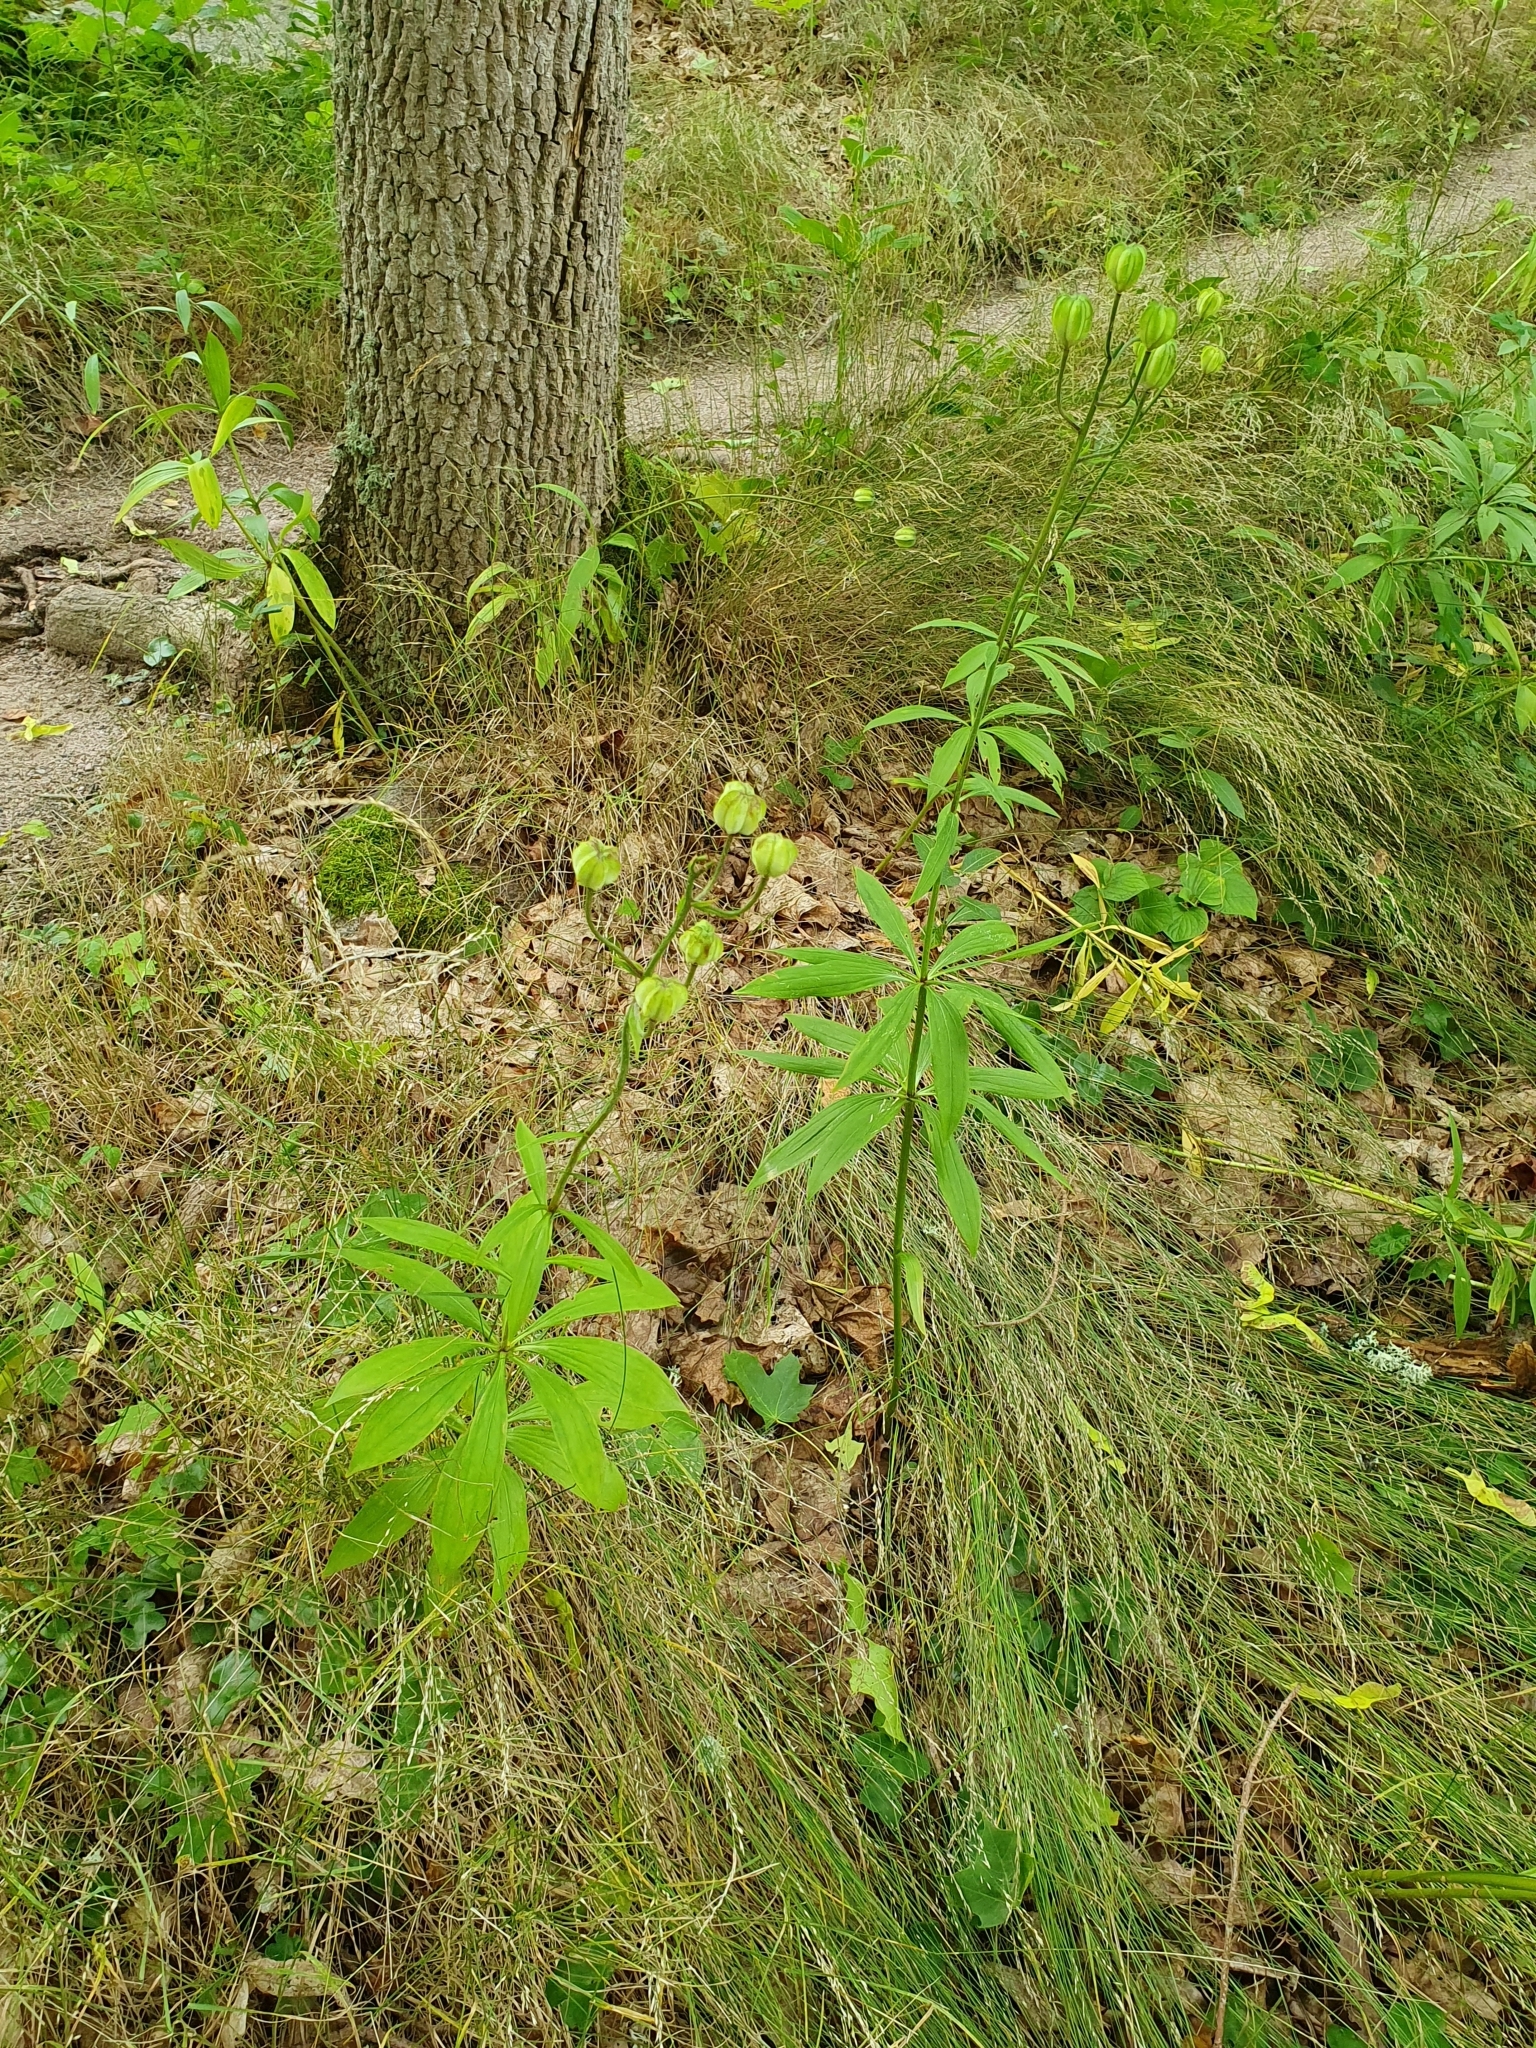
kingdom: Plantae
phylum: Tracheophyta
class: Liliopsida
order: Liliales
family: Liliaceae
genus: Lilium
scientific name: Lilium martagon
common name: Martagon lily
